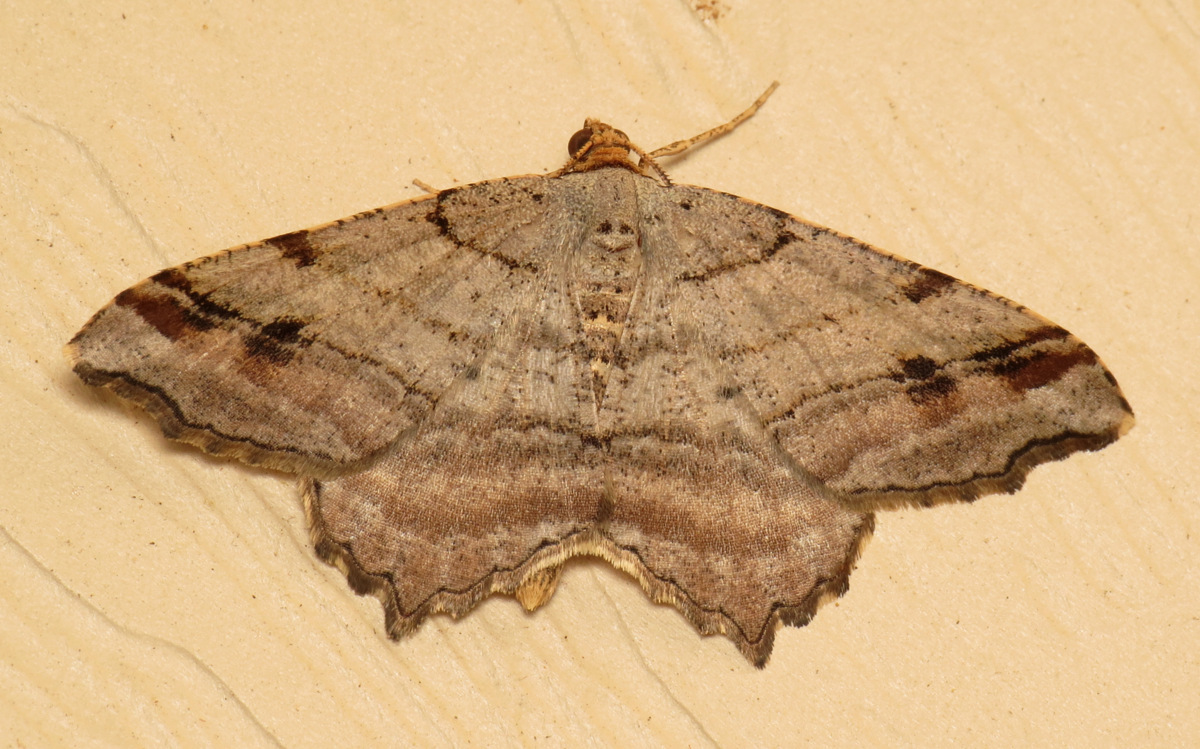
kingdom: Animalia
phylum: Arthropoda
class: Insecta
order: Lepidoptera
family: Geometridae
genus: Macaria
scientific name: Macaria multilineata
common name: Many-lined angle
